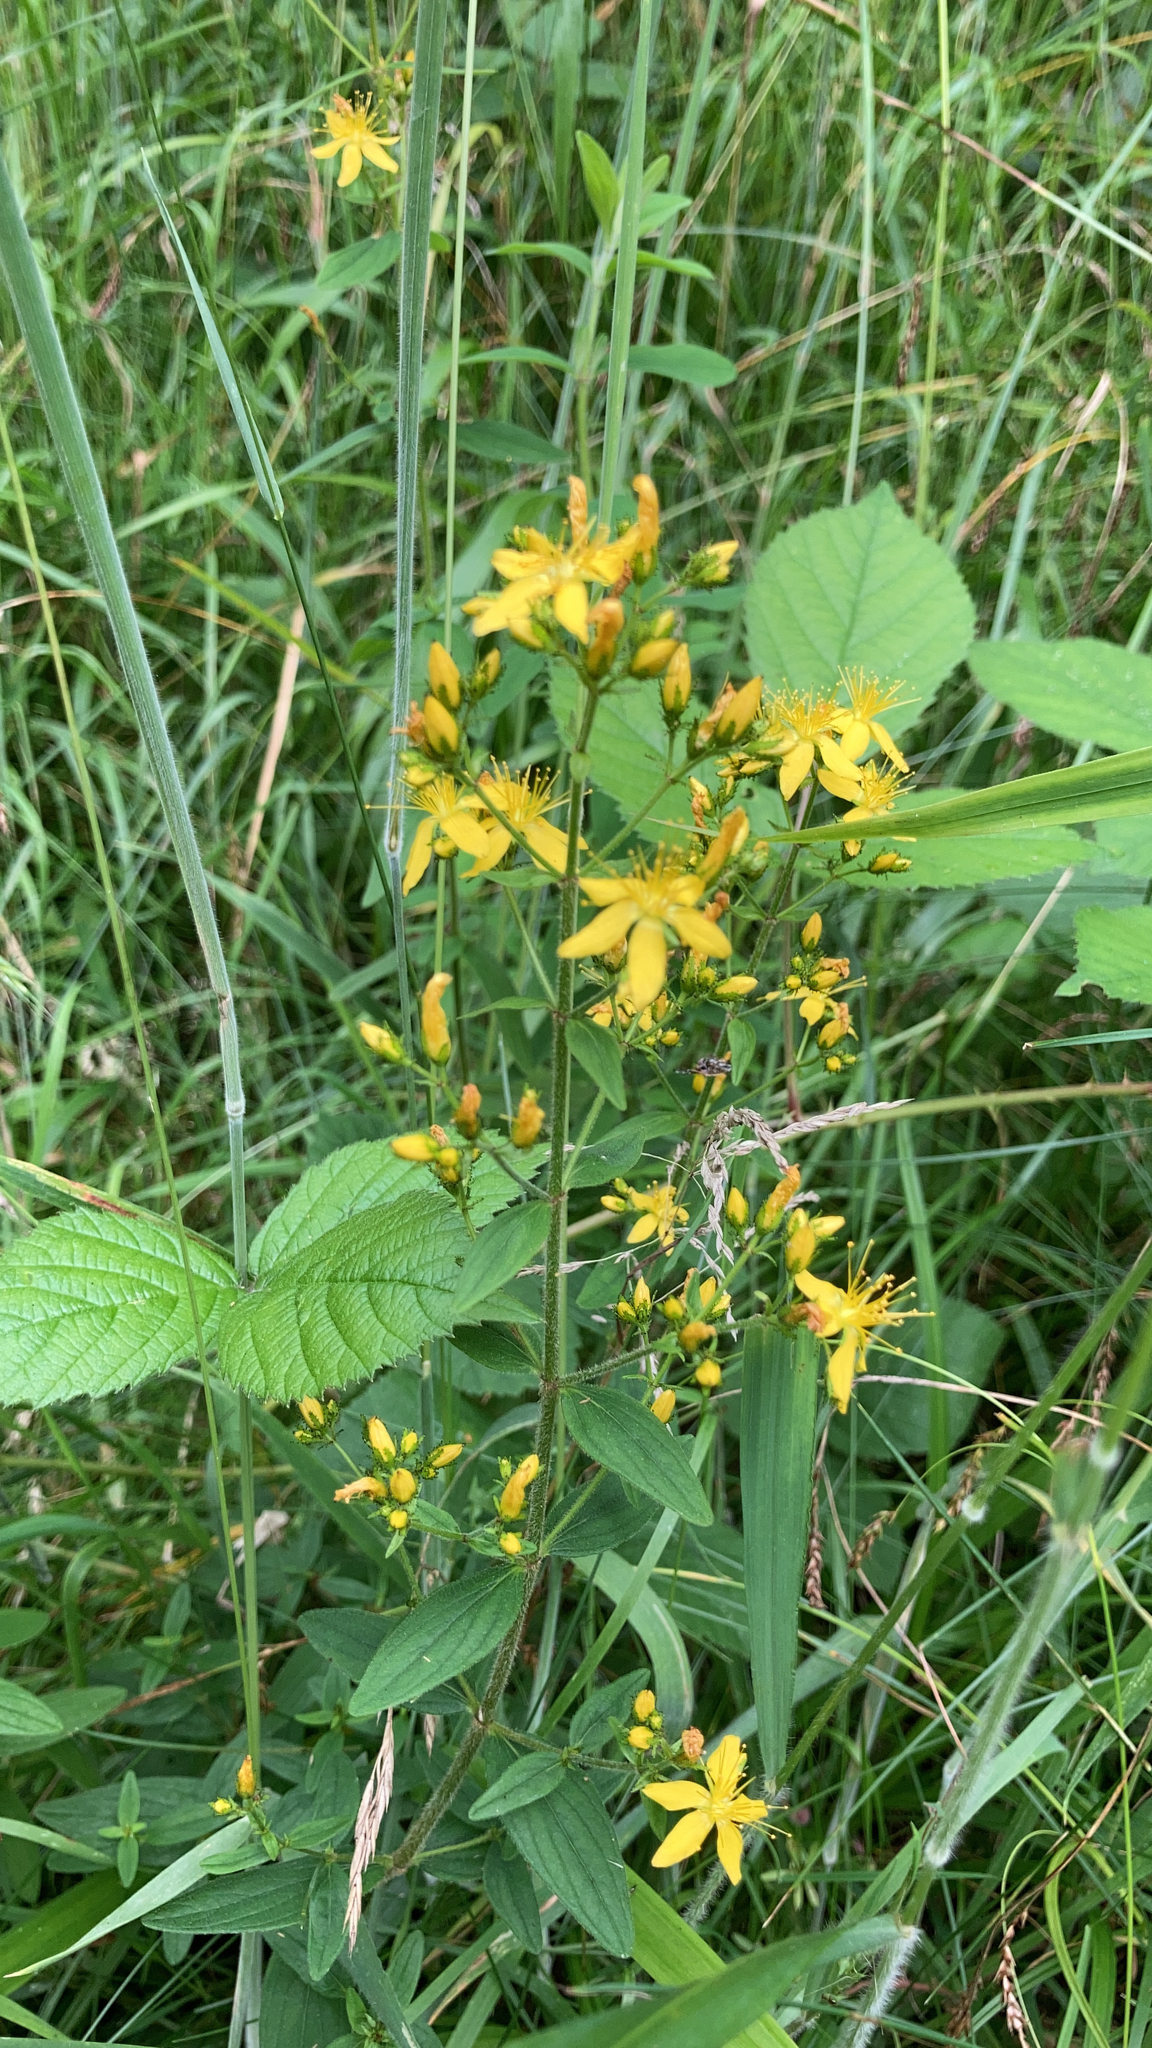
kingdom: Plantae
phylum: Tracheophyta
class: Magnoliopsida
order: Malpighiales
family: Hypericaceae
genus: Hypericum
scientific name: Hypericum hirsutum
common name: Hairy st. john's-wort
